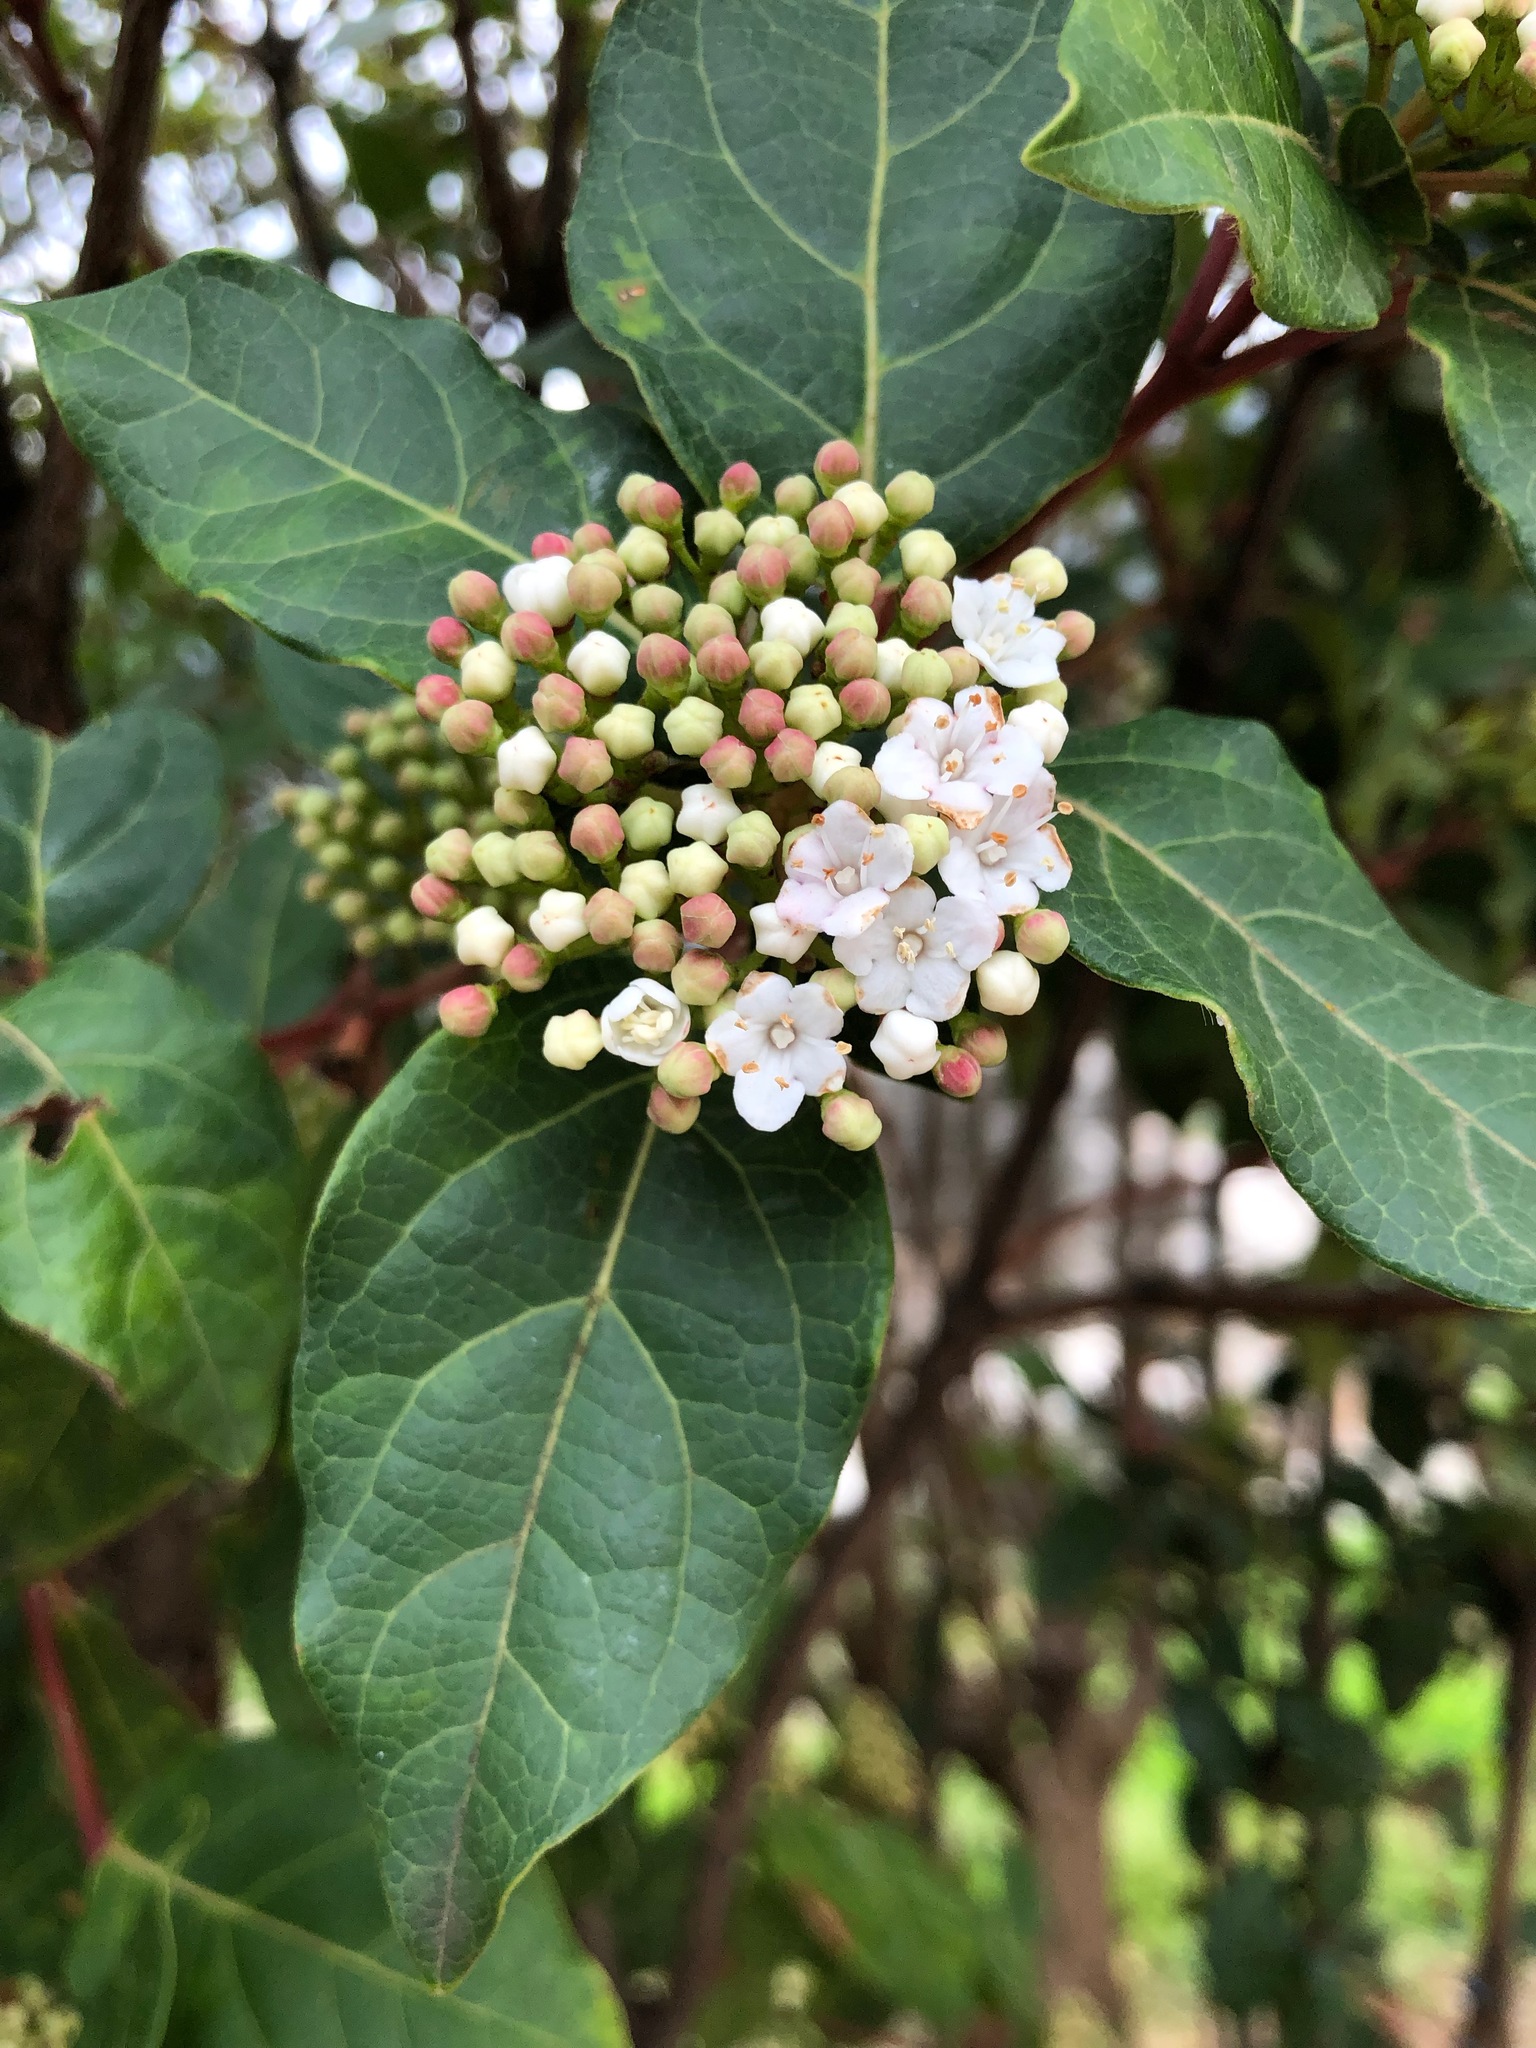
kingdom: Plantae
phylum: Tracheophyta
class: Magnoliopsida
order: Dipsacales
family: Viburnaceae
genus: Viburnum
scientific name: Viburnum tinus
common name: Laurustinus
